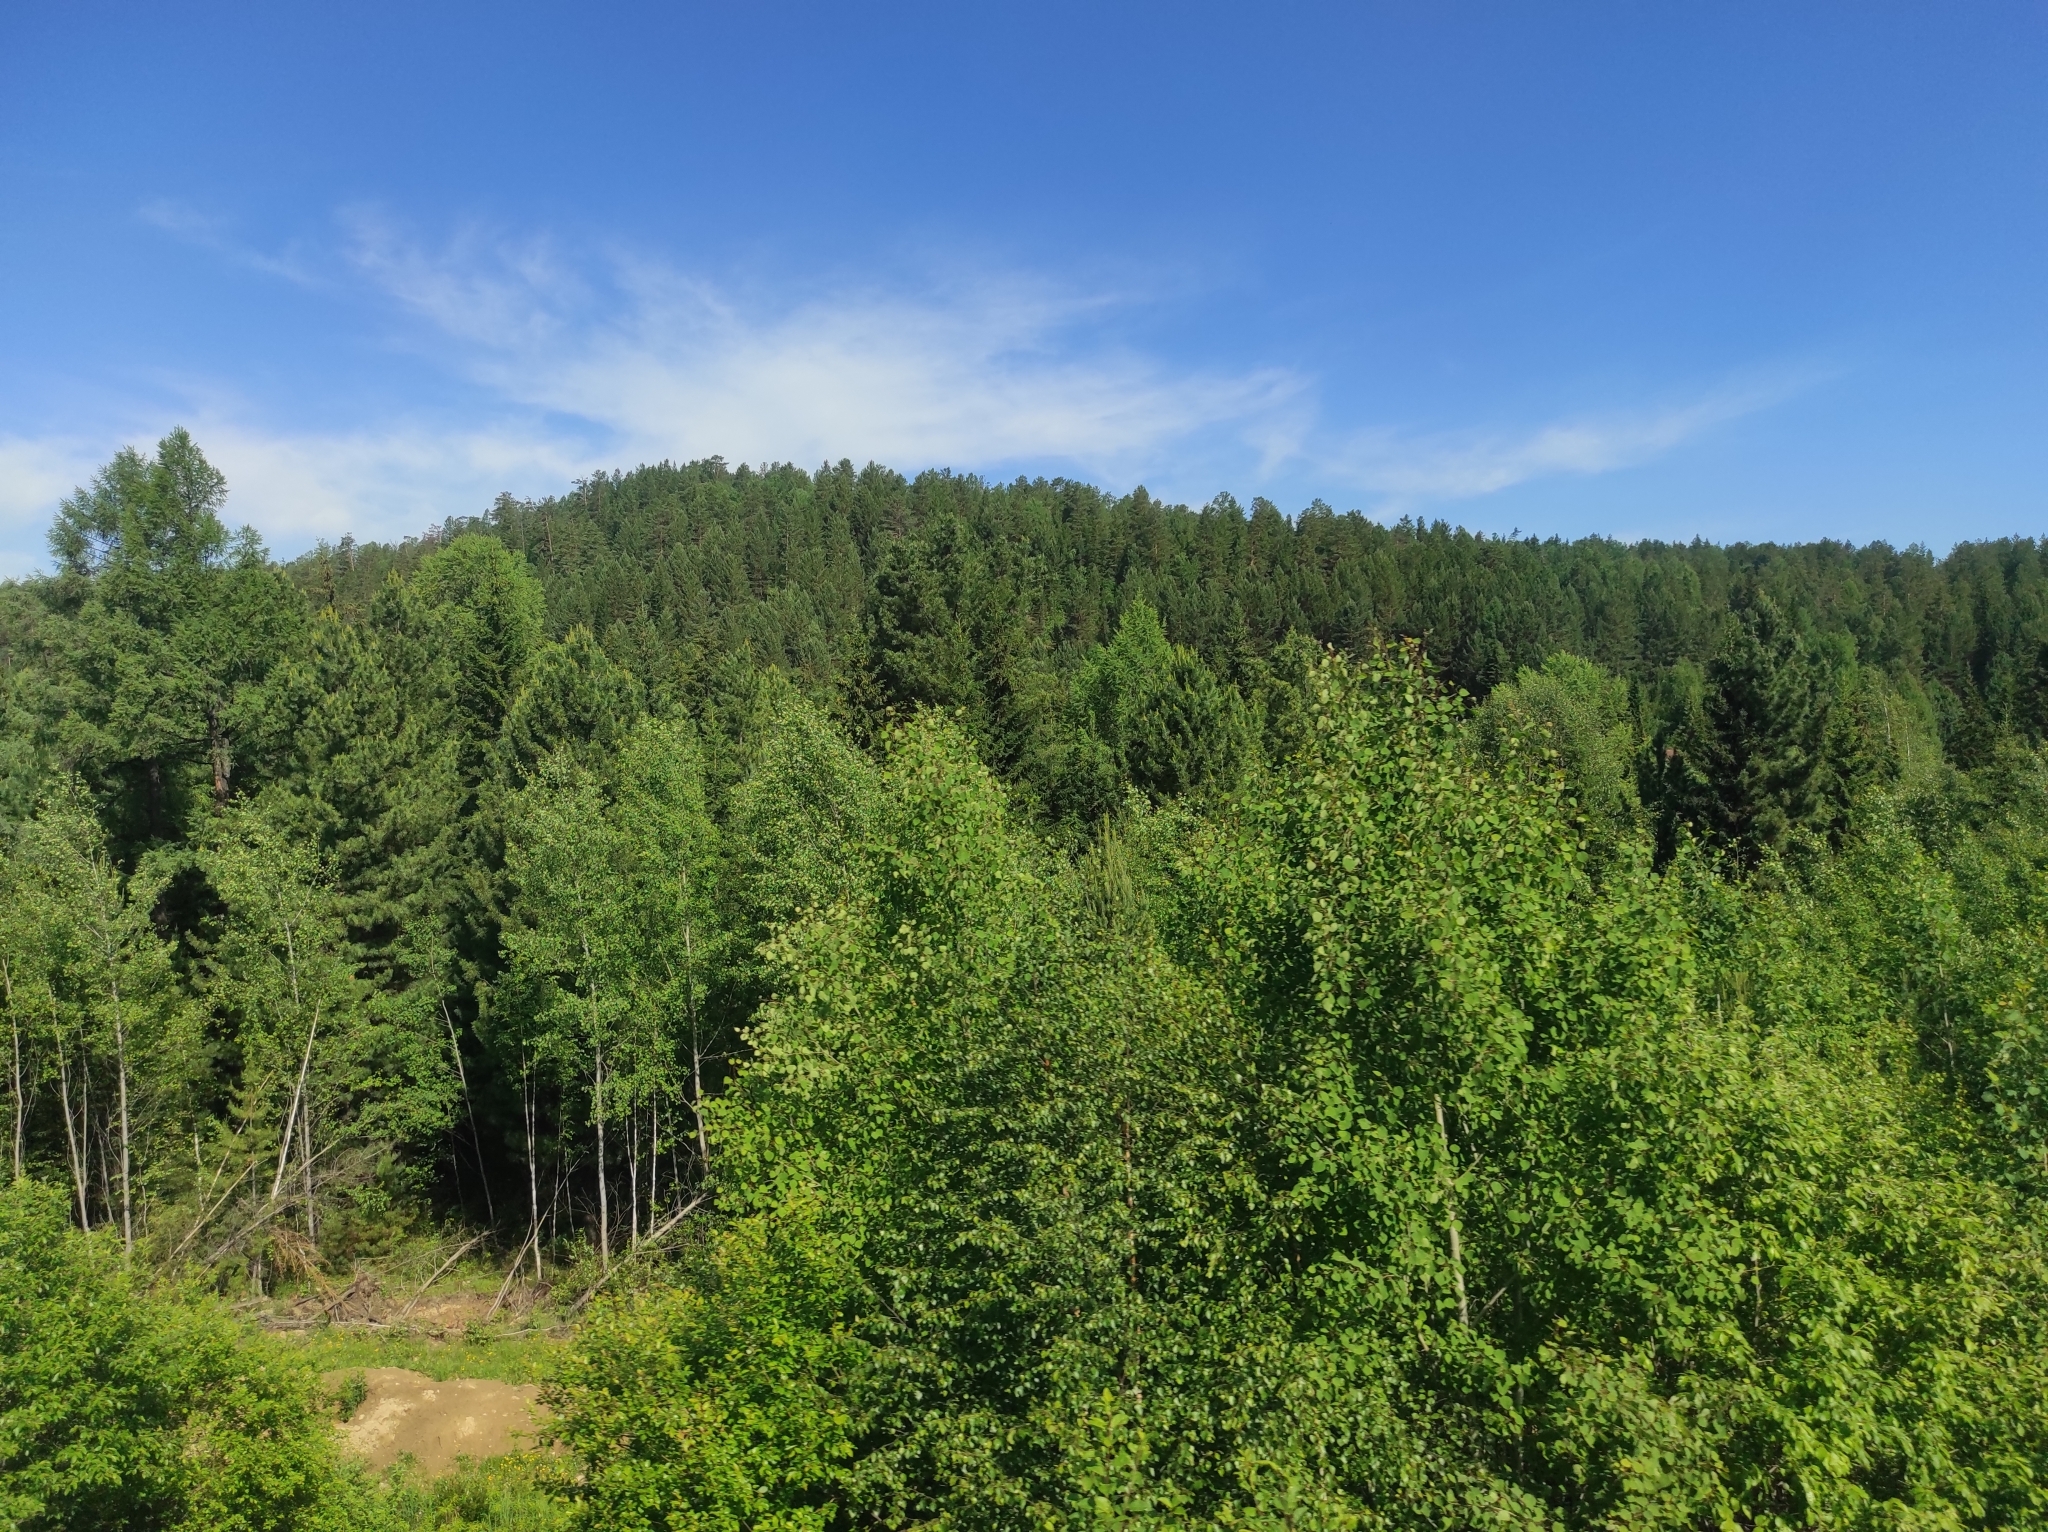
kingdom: Plantae
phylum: Tracheophyta
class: Pinopsida
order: Pinales
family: Pinaceae
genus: Pinus
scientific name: Pinus sibirica
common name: Siberian pine
